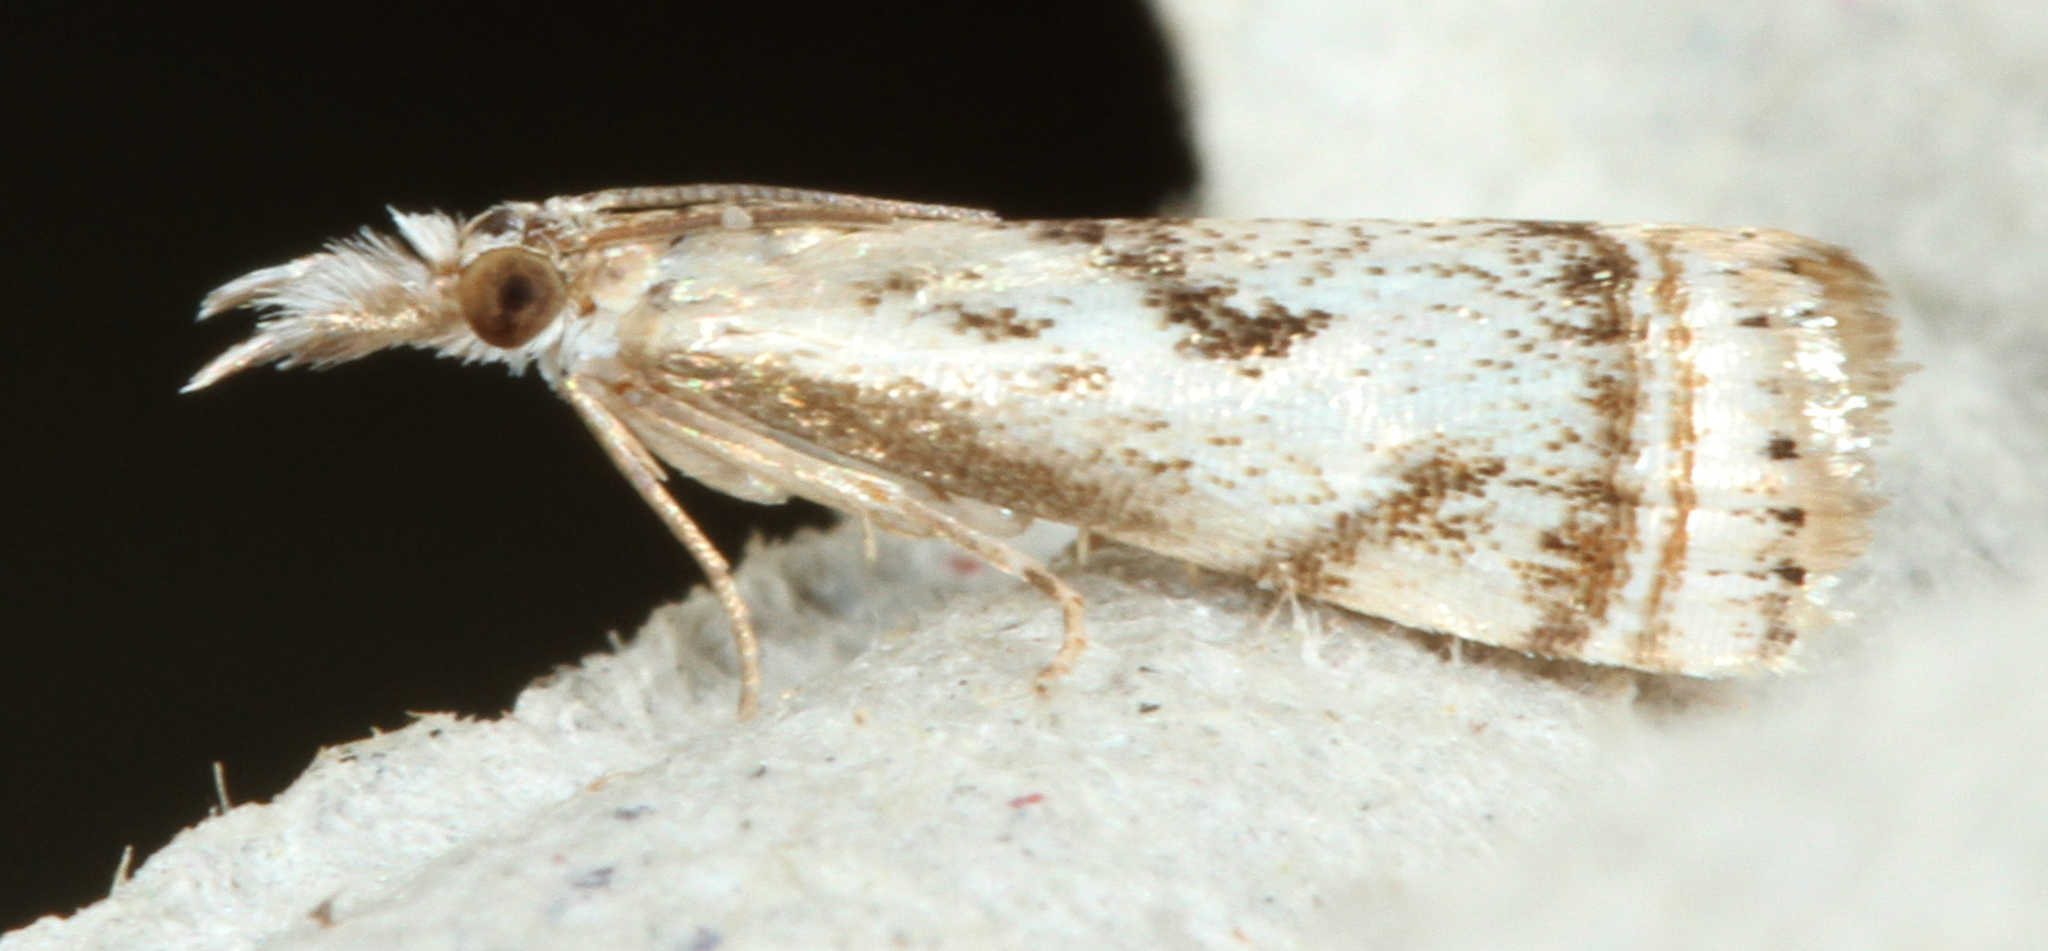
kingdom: Animalia
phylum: Arthropoda
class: Insecta
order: Lepidoptera
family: Crambidae
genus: Microcrambus
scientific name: Microcrambus elegans
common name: Elegant grass-veneer
